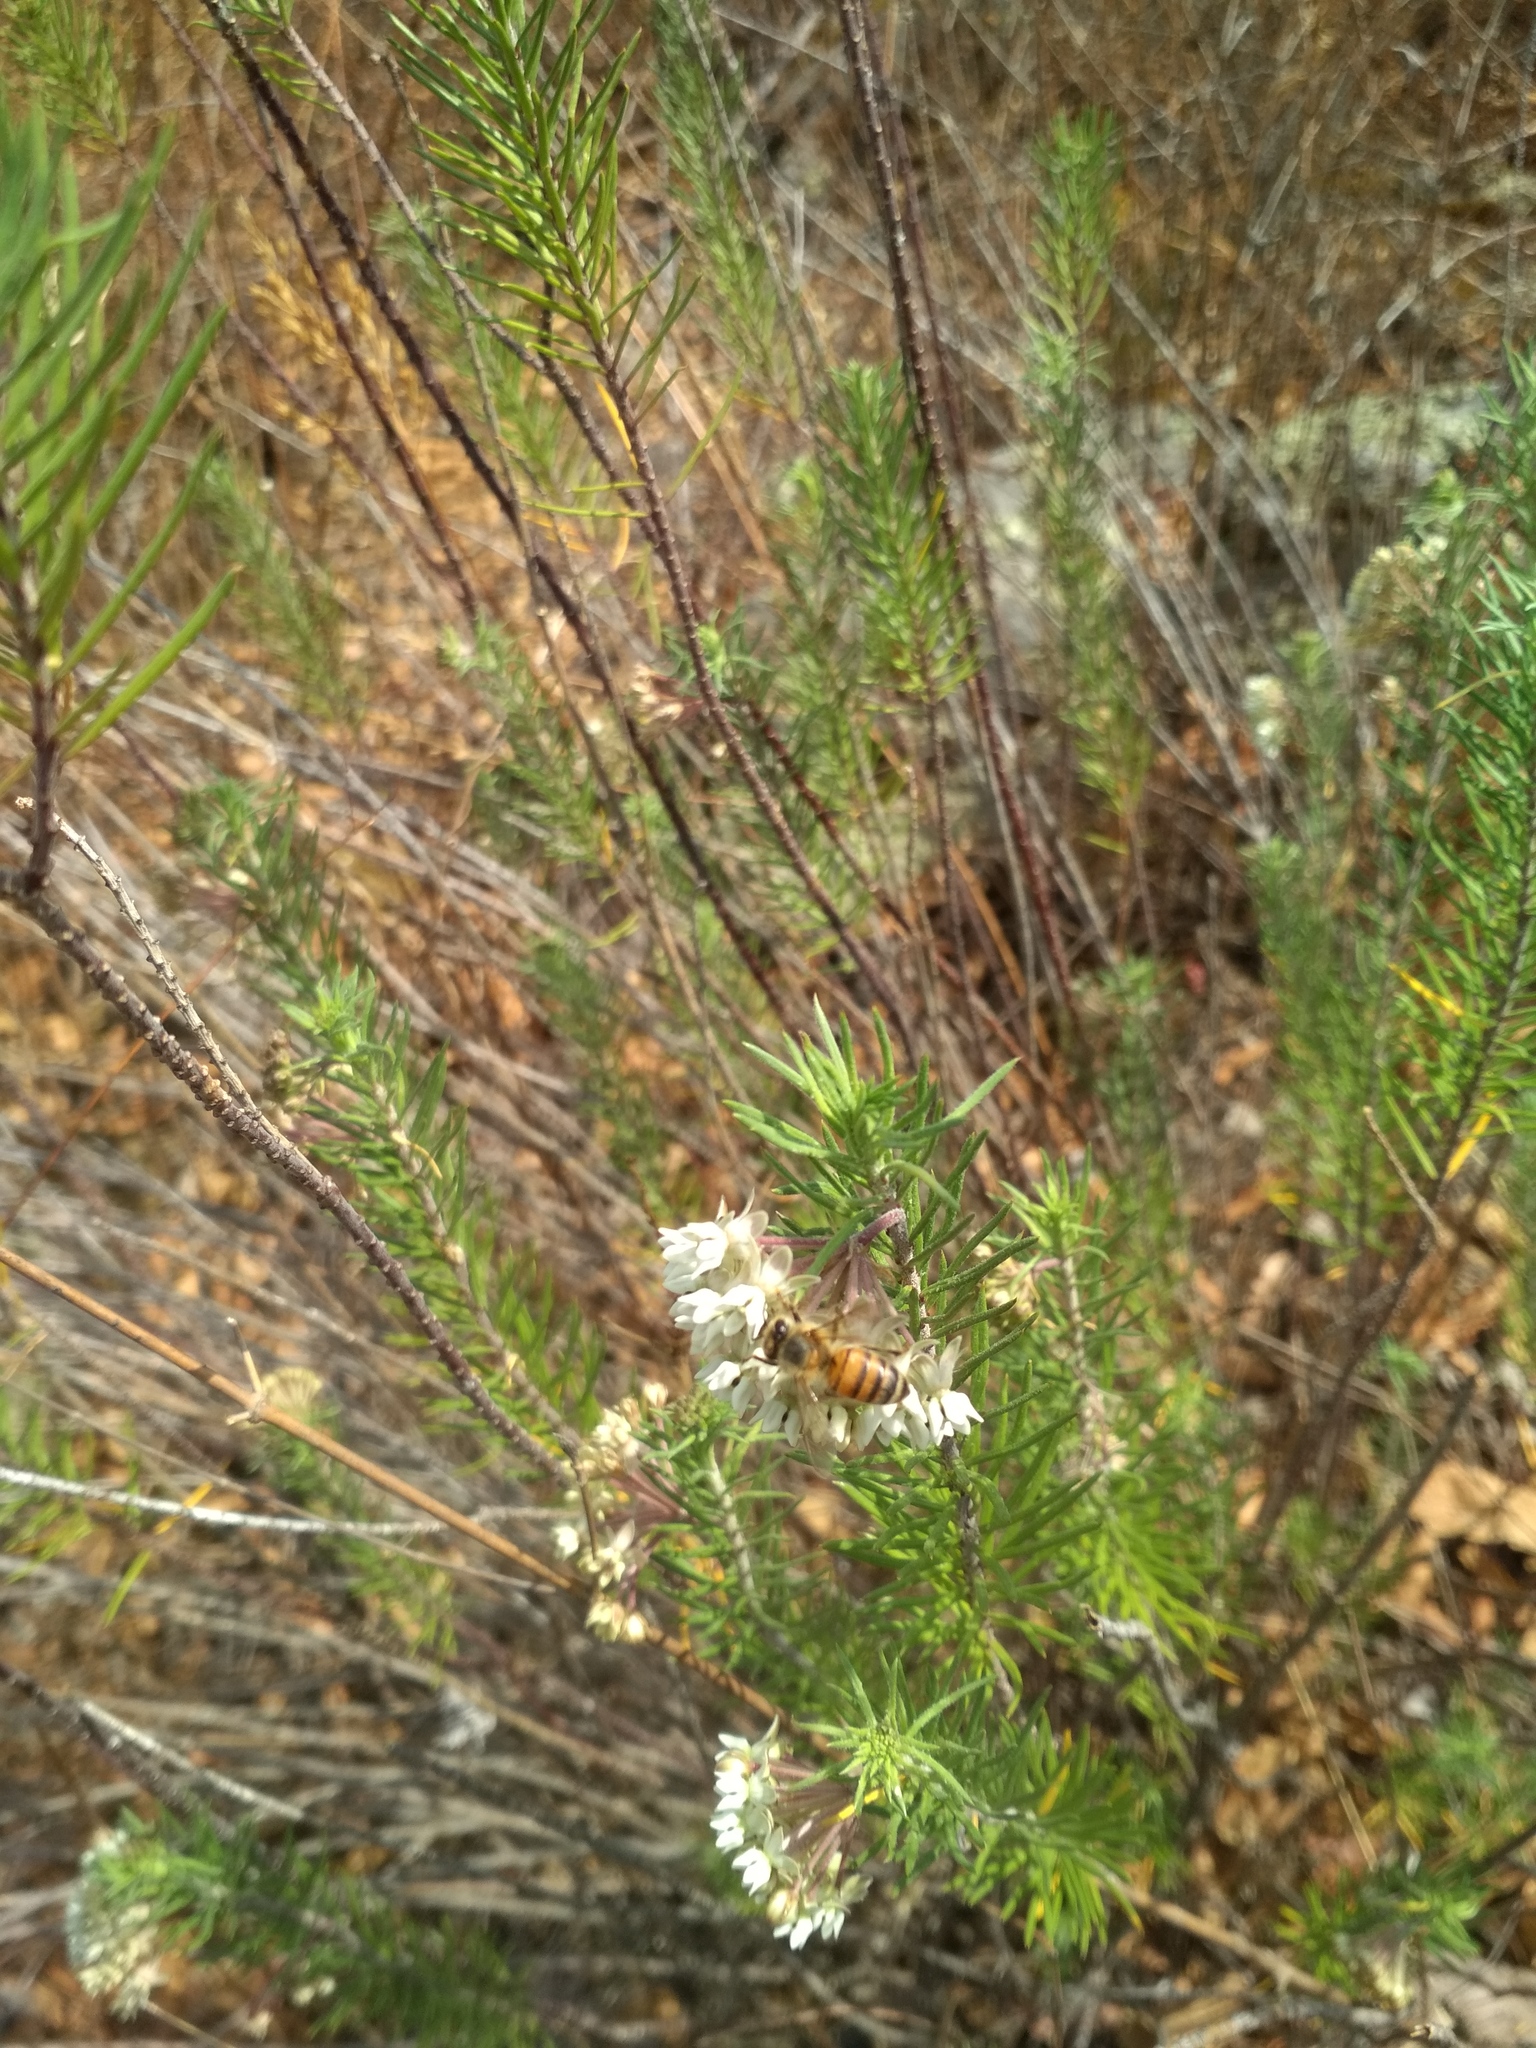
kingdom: Plantae
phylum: Tracheophyta
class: Magnoliopsida
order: Gentianales
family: Apocynaceae
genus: Asclepias
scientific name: Asclepias linaria
